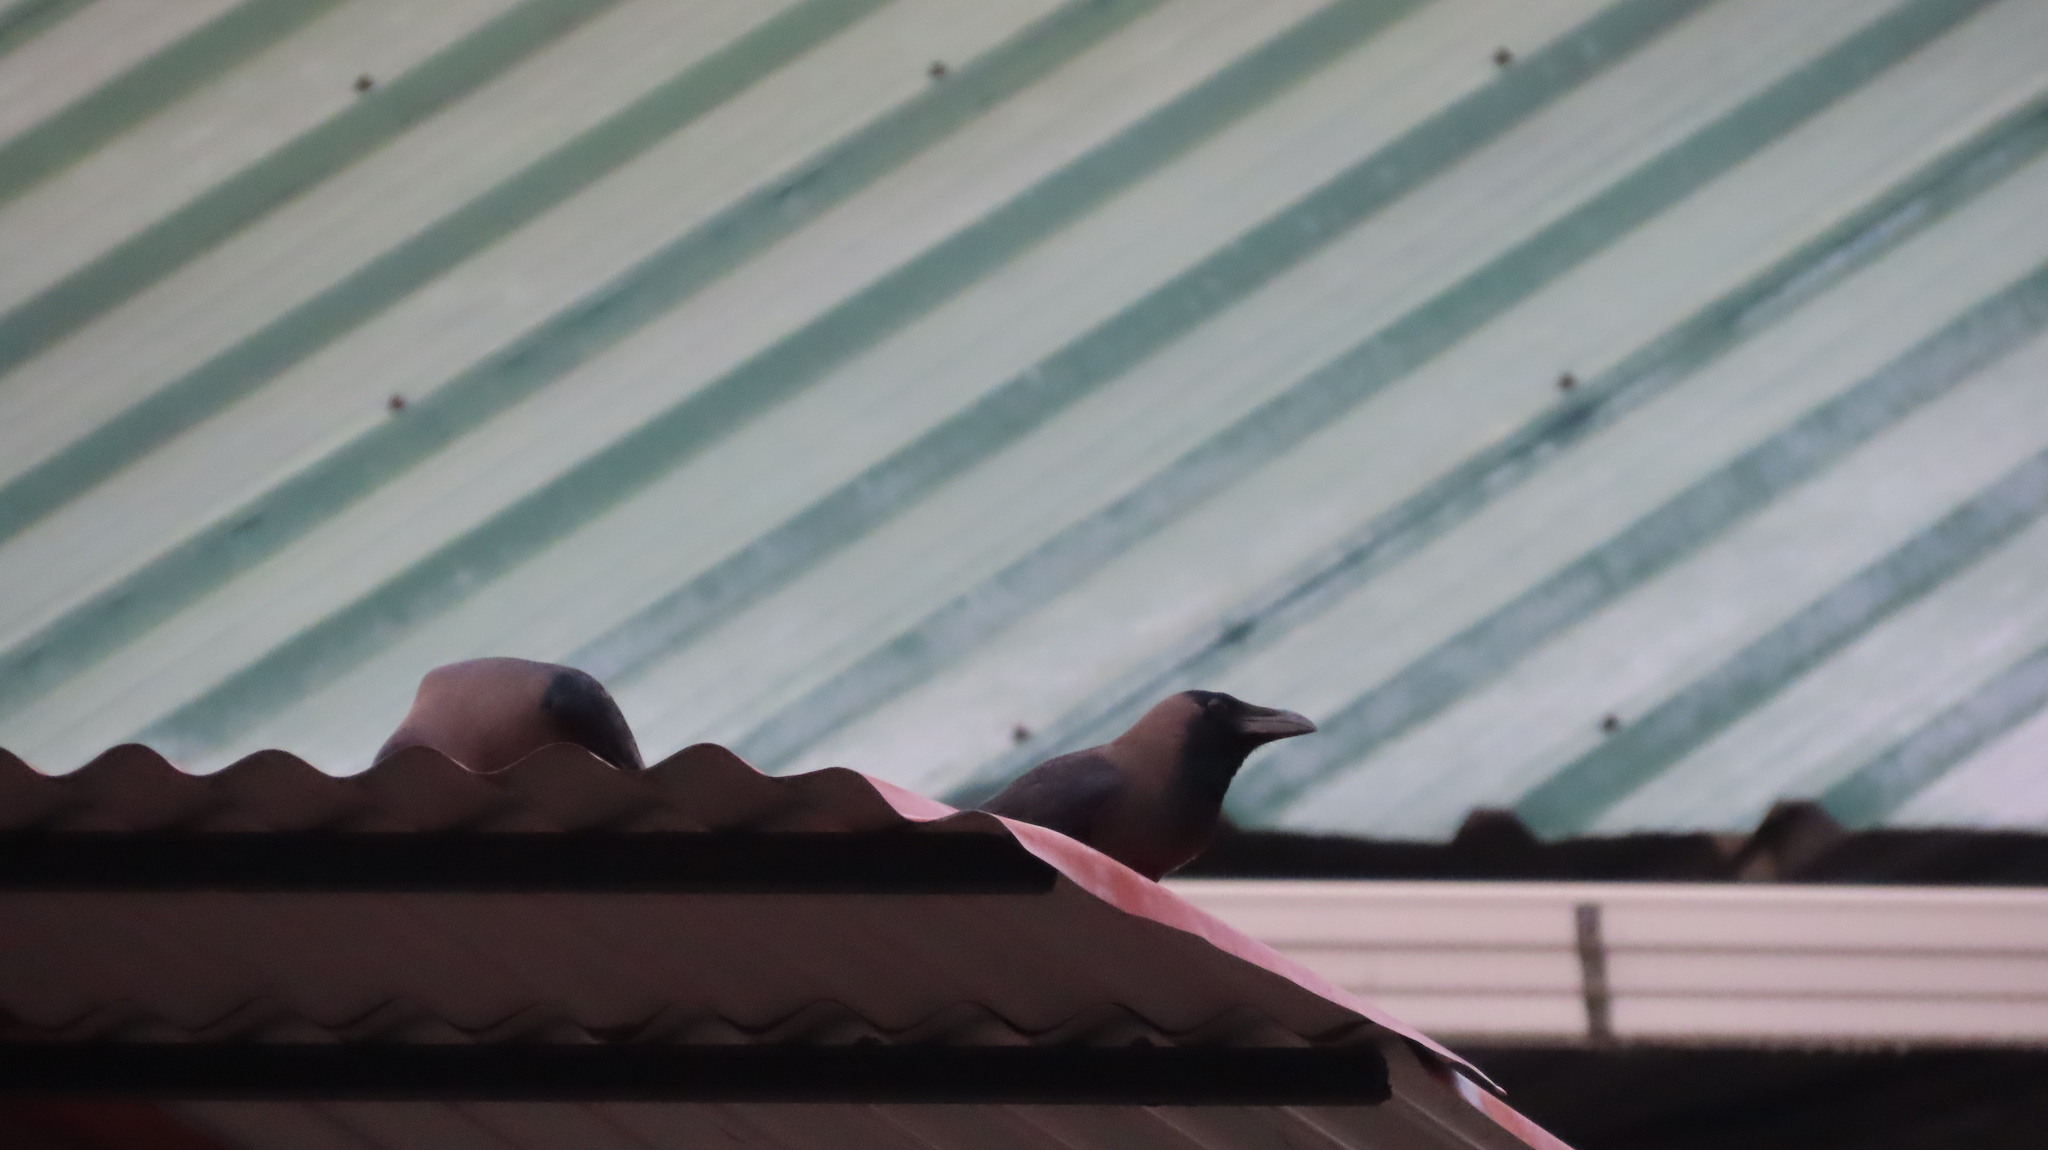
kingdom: Animalia
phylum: Chordata
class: Aves
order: Passeriformes
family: Corvidae
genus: Corvus
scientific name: Corvus splendens
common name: House crow
